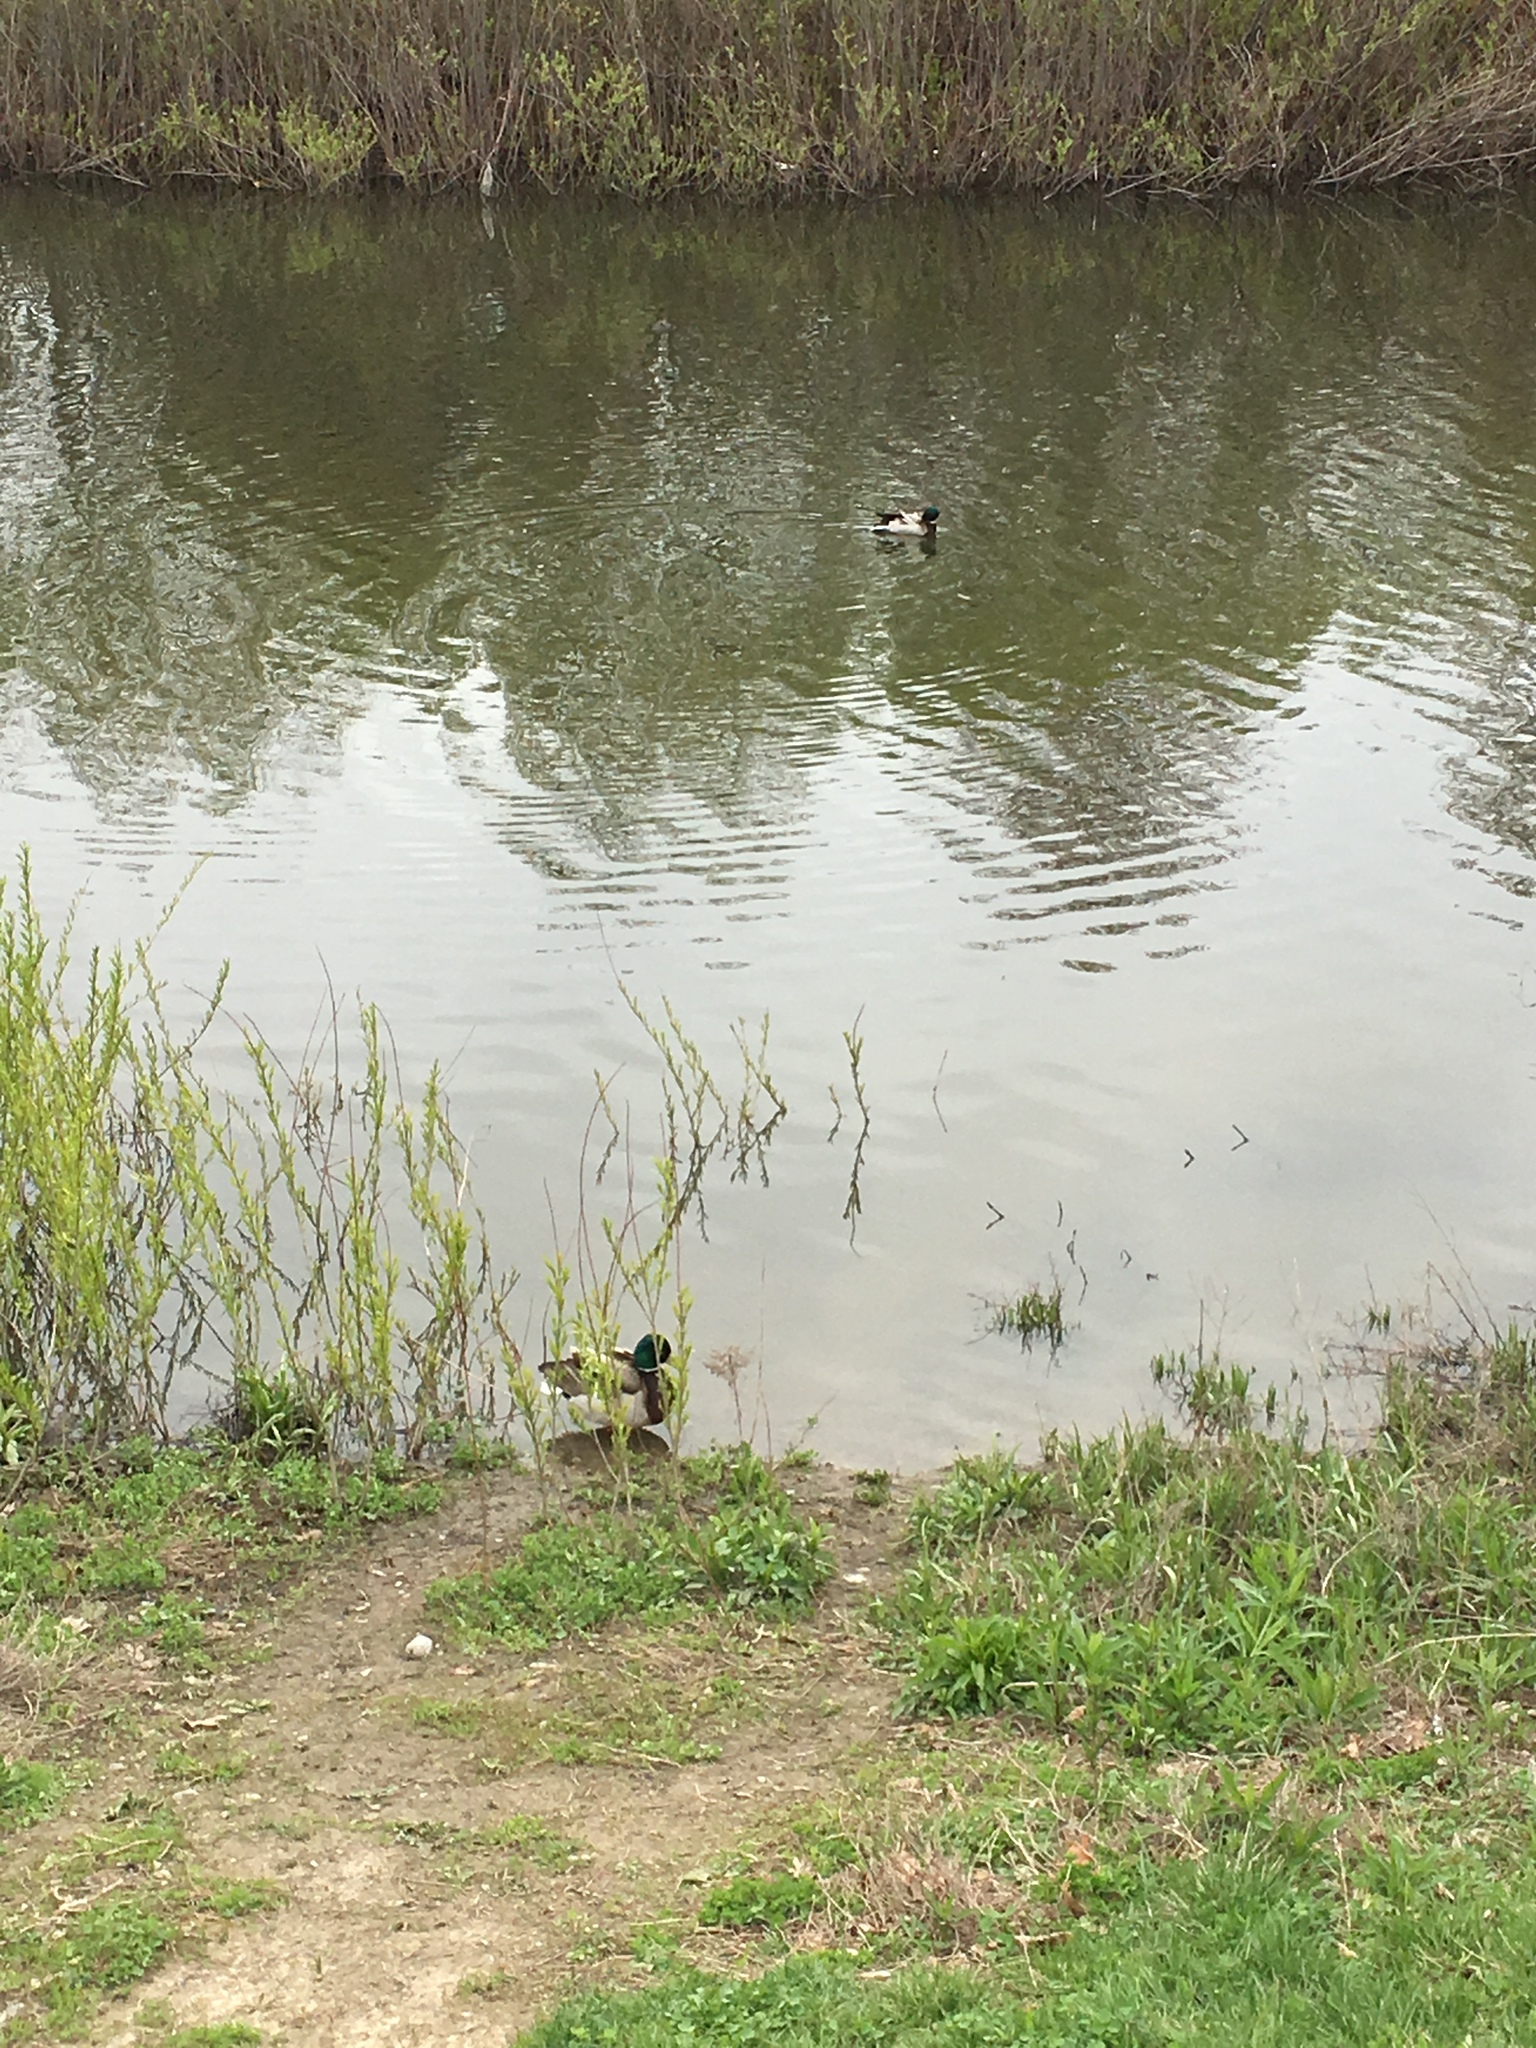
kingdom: Animalia
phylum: Chordata
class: Aves
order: Anseriformes
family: Anatidae
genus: Anas
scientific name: Anas platyrhynchos
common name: Mallard
